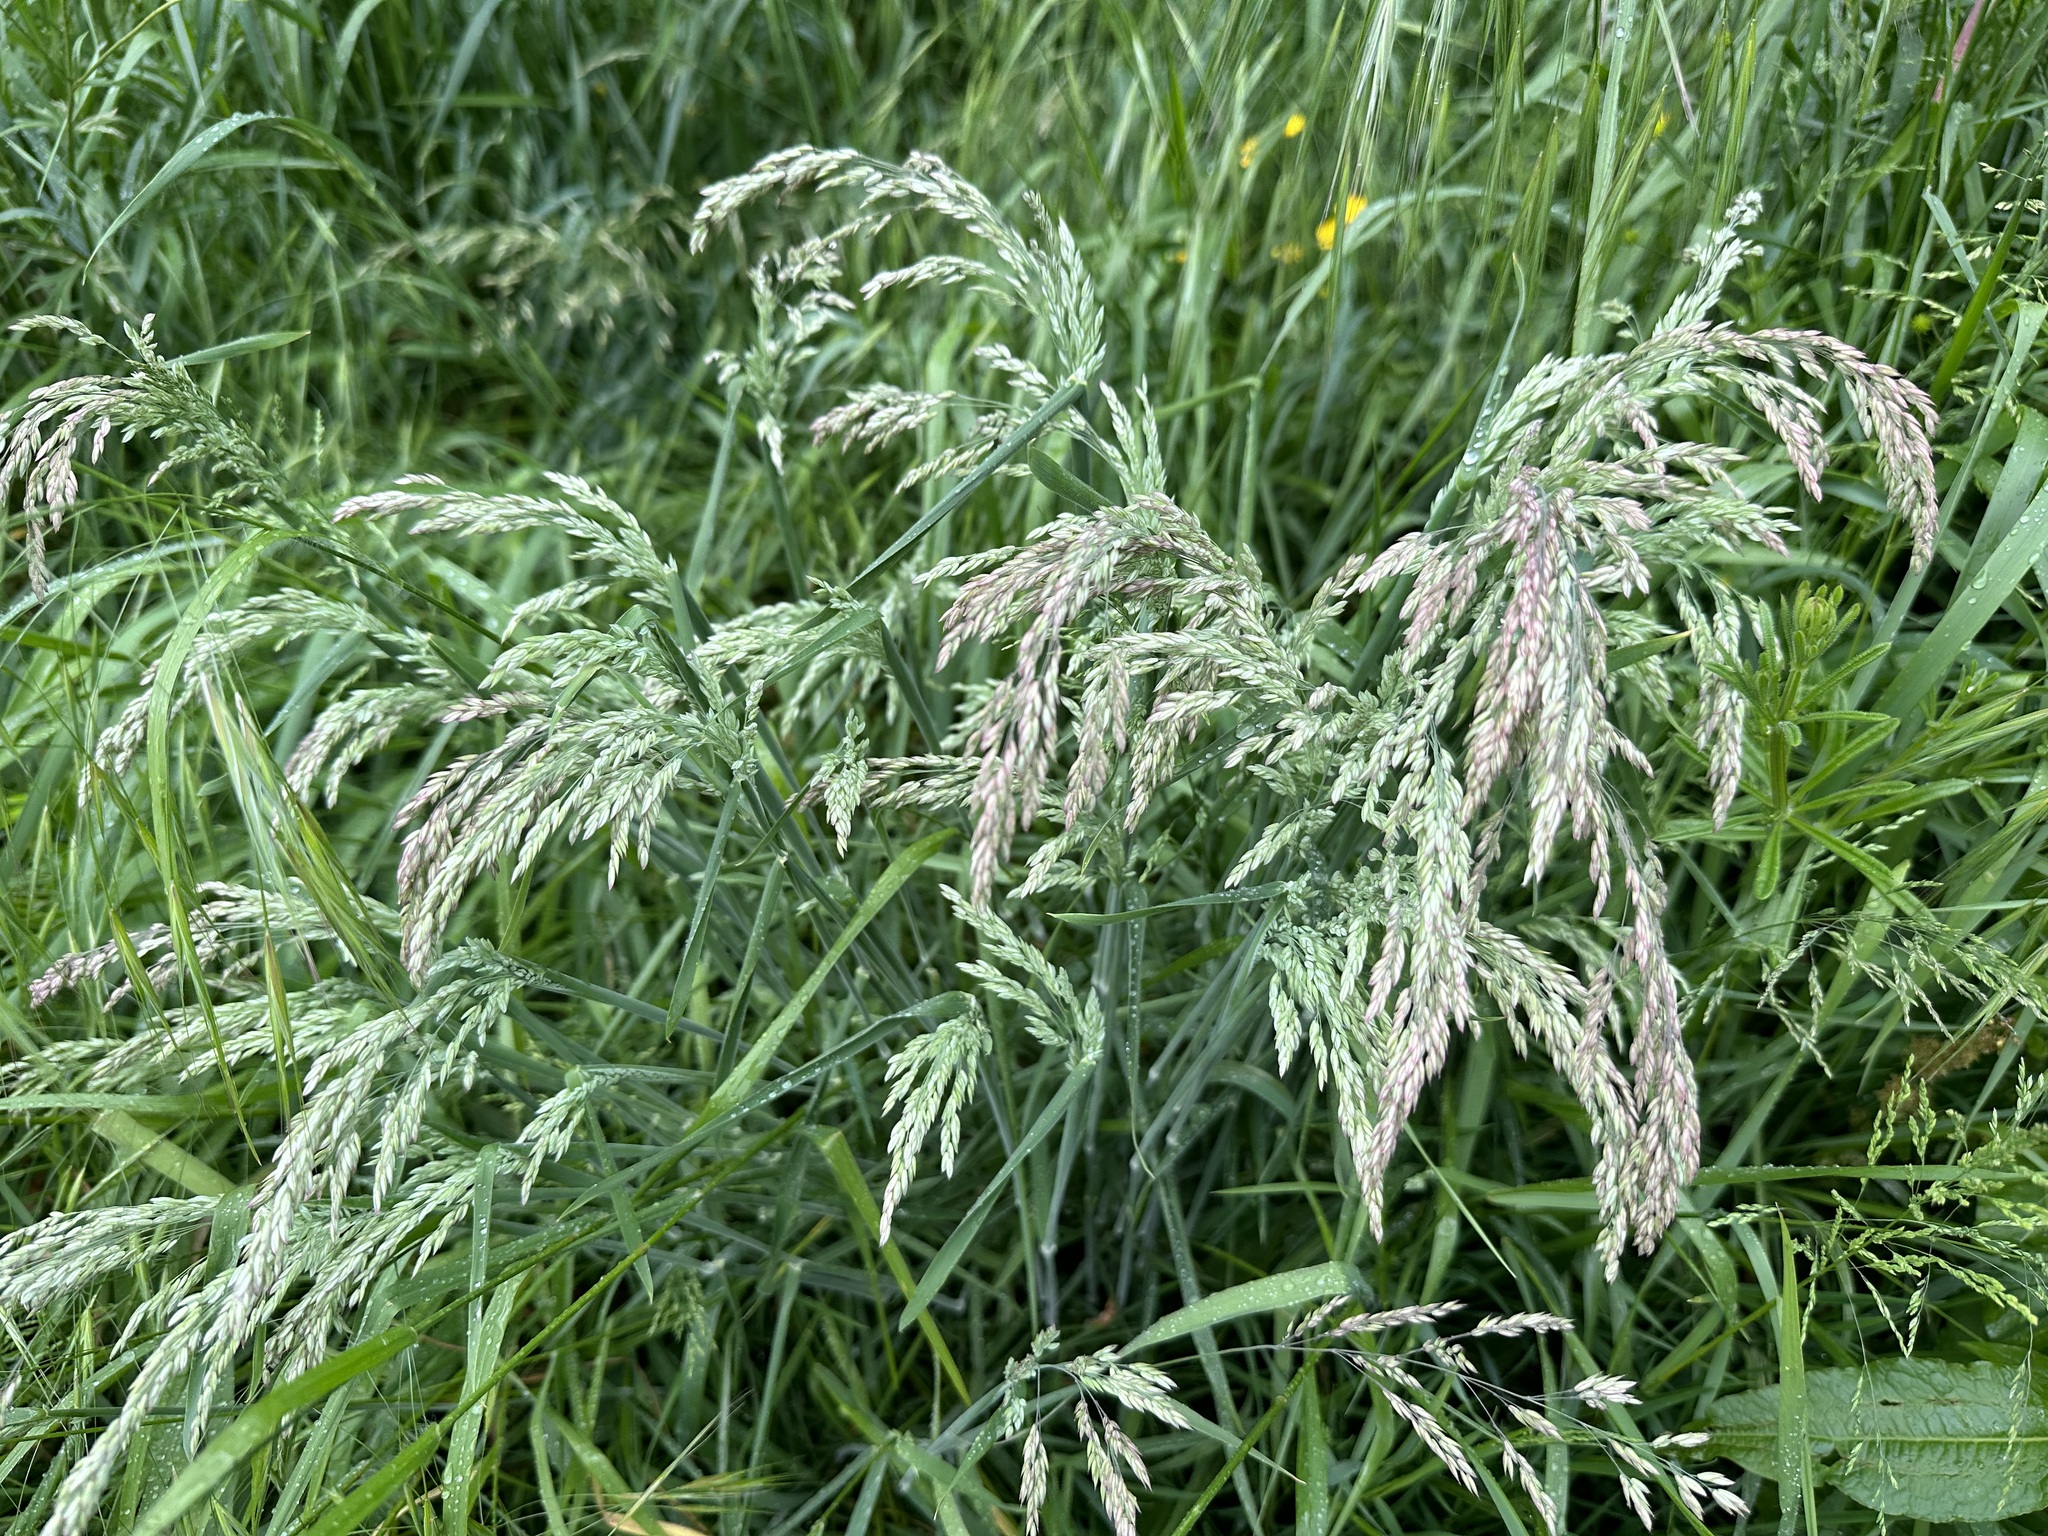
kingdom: Plantae
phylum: Tracheophyta
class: Liliopsida
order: Poales
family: Poaceae
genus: Holcus
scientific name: Holcus lanatus
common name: Yorkshire-fog
